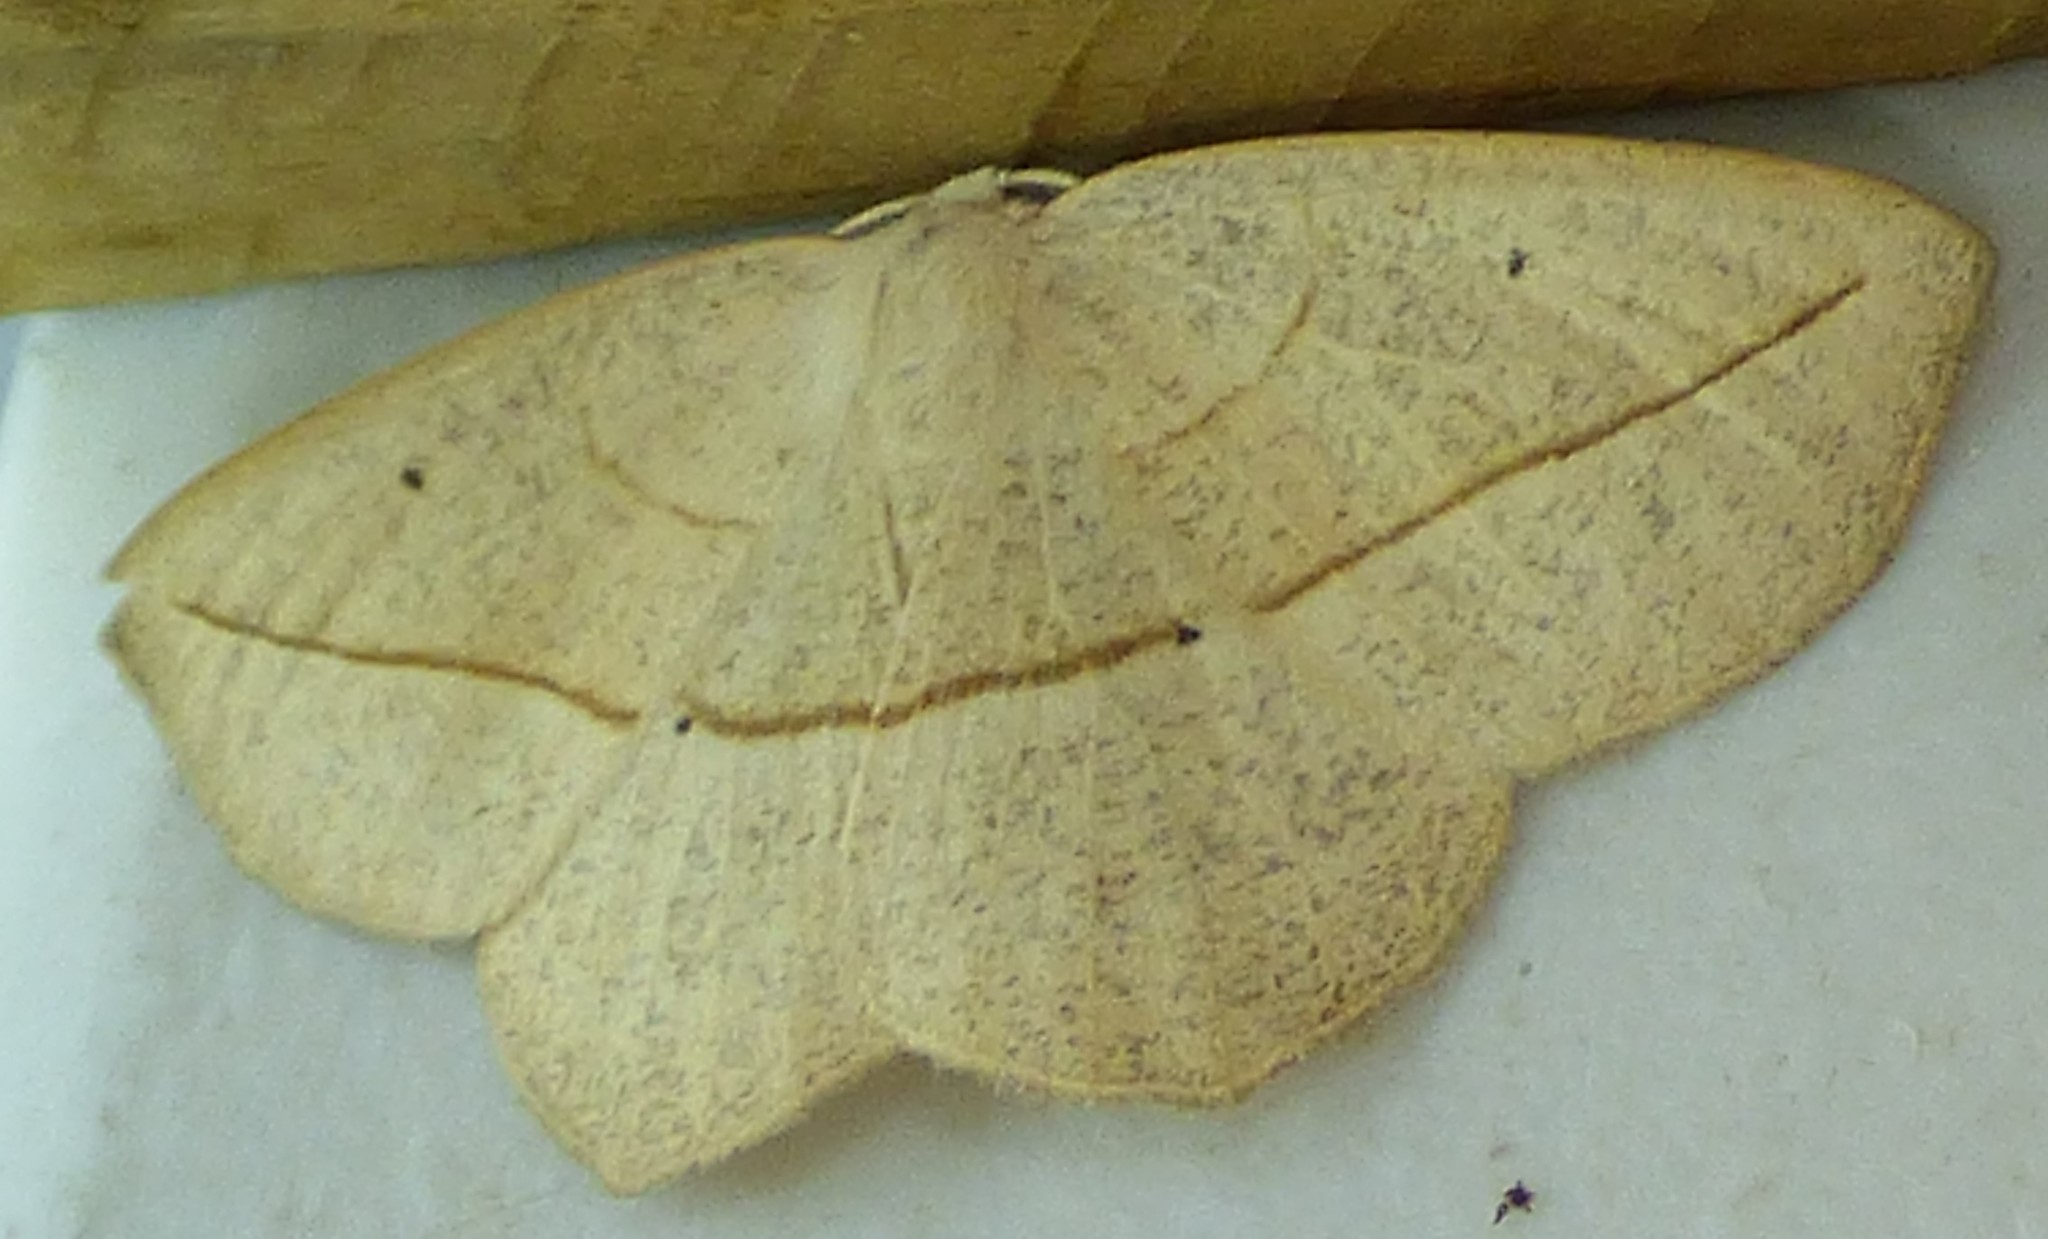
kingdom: Animalia
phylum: Arthropoda
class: Insecta
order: Lepidoptera
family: Geometridae
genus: Eusarca
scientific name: Eusarca confusaria
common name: Confused eusarca
